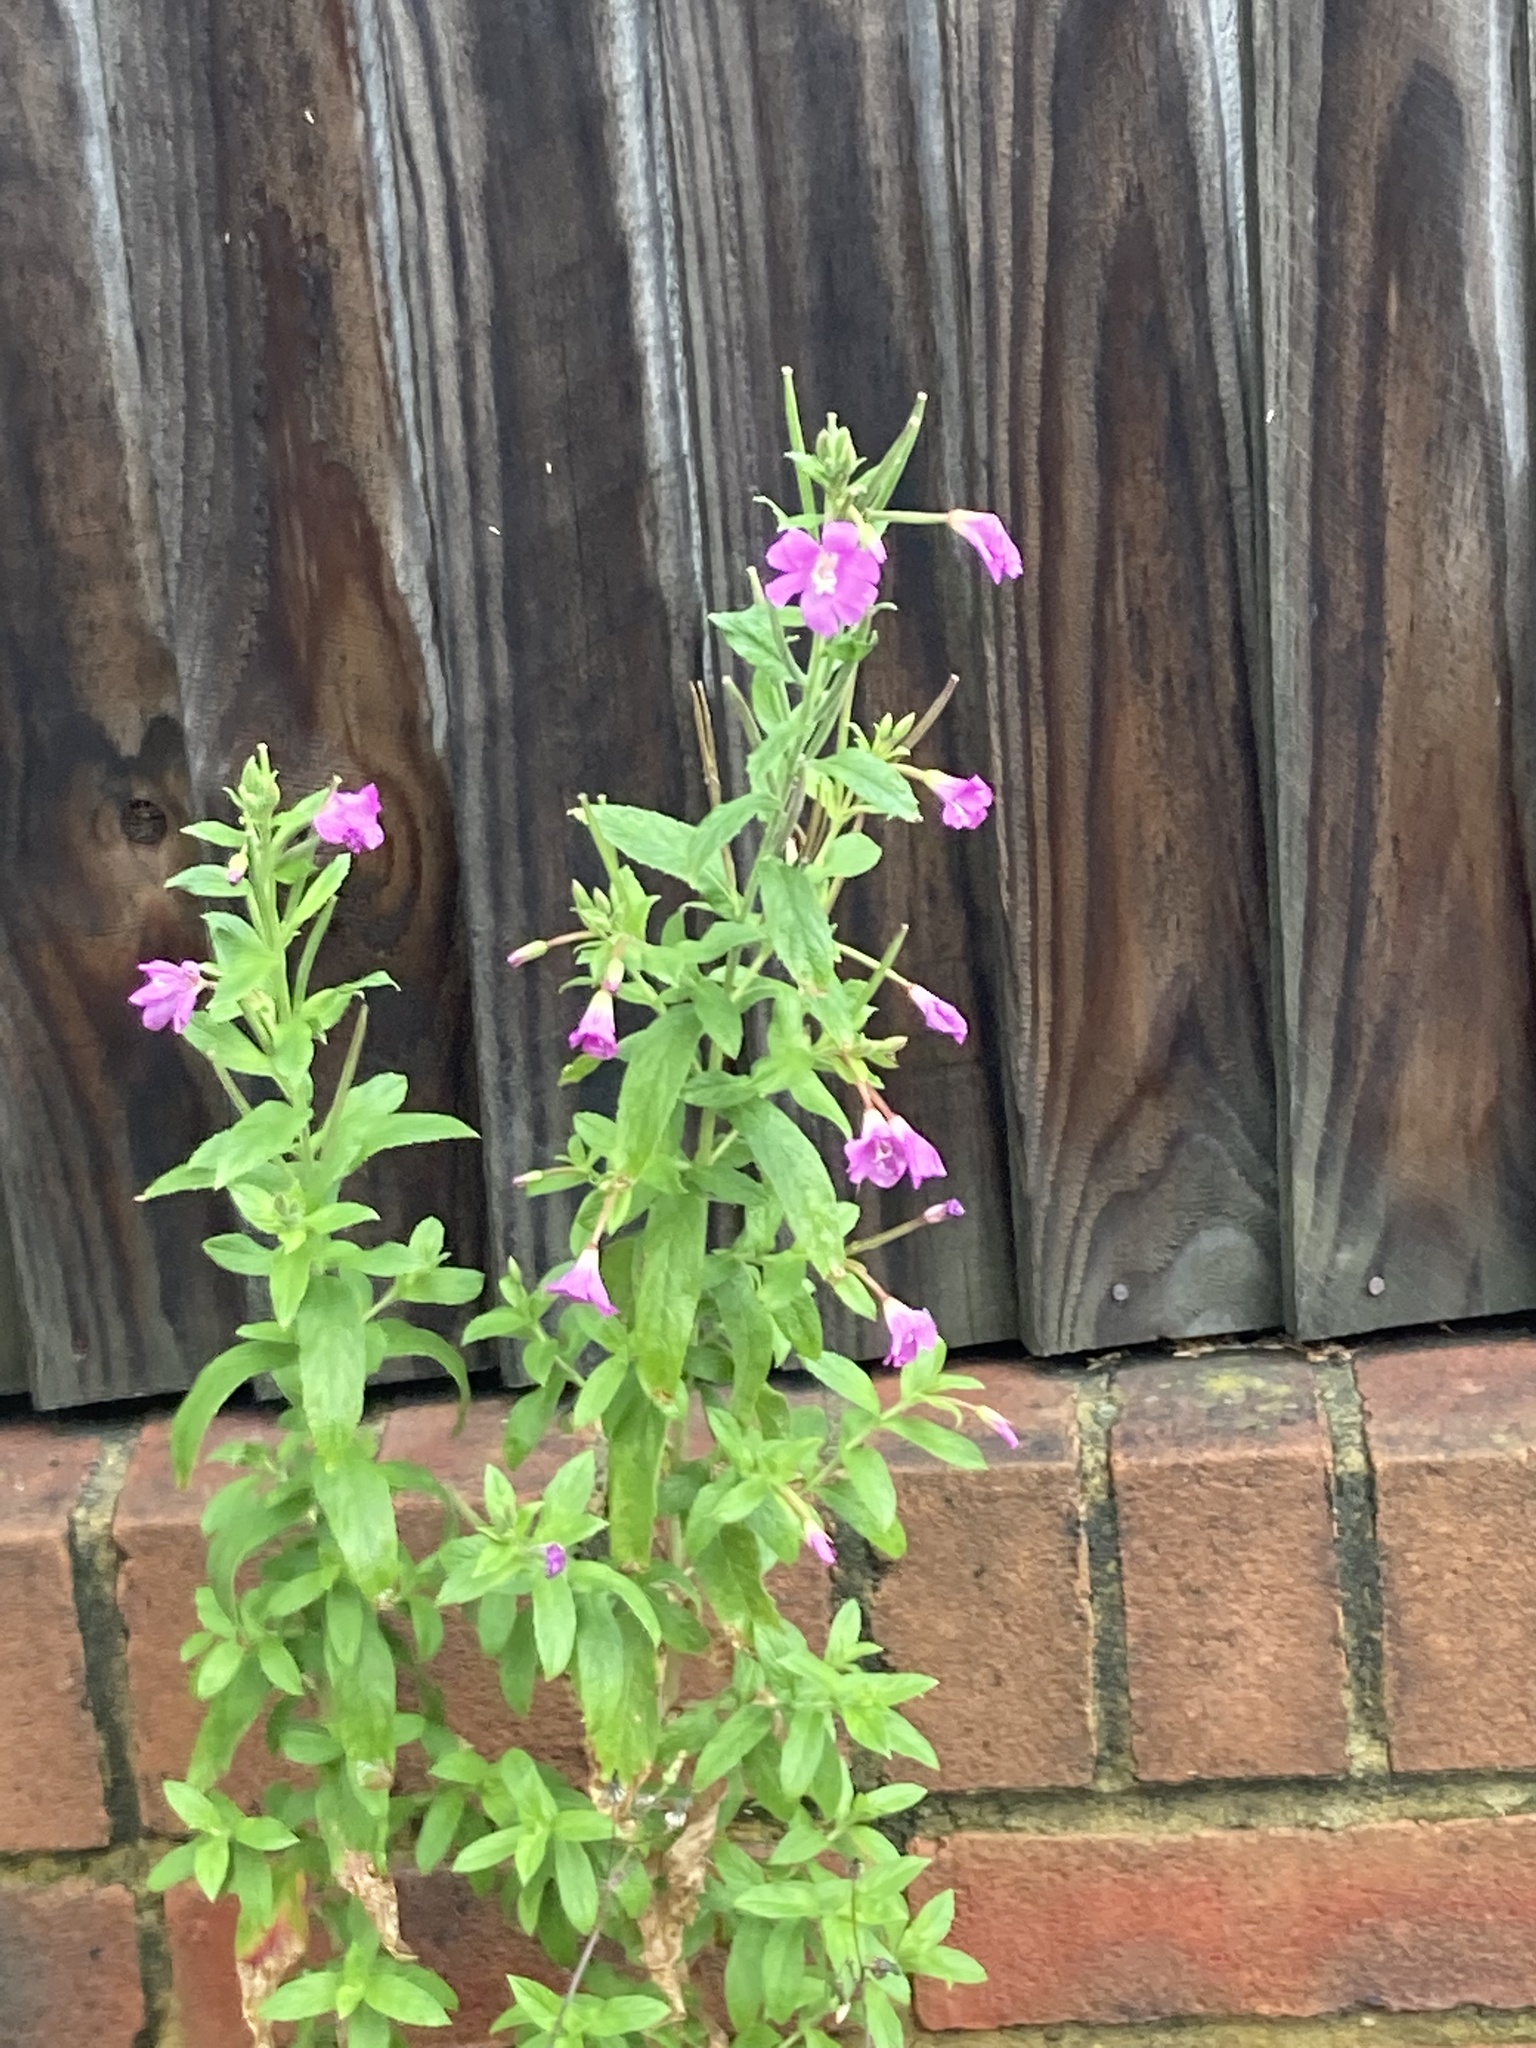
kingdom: Plantae
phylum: Tracheophyta
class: Magnoliopsida
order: Myrtales
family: Onagraceae
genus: Epilobium
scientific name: Epilobium hirsutum
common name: Great willowherb
